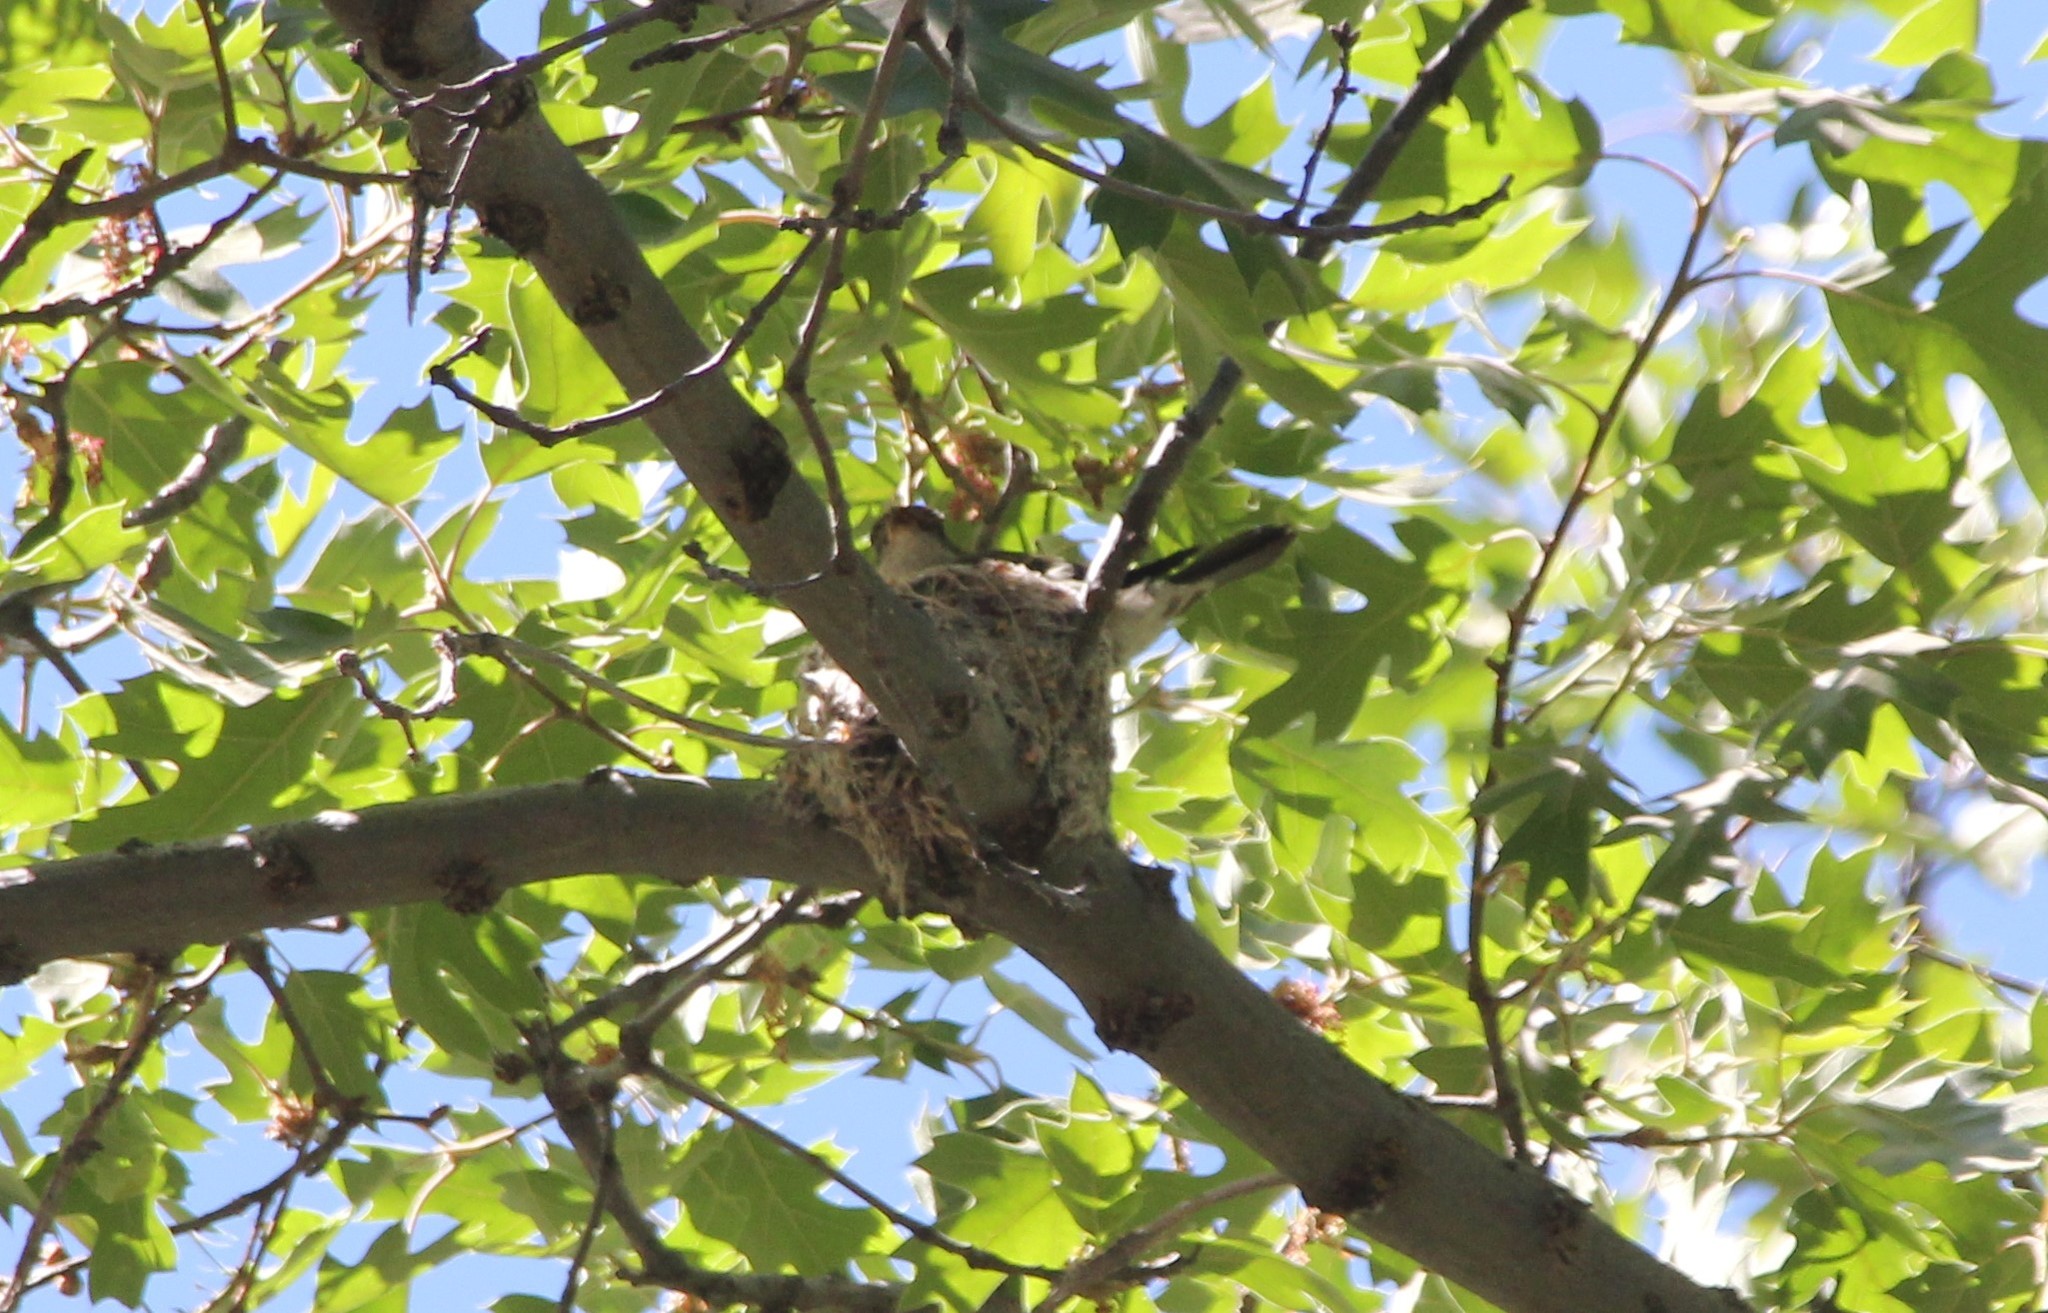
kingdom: Animalia
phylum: Chordata
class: Aves
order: Passeriformes
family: Tyrannidae
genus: Contopus
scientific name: Contopus sordidulus
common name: Western wood-pewee
